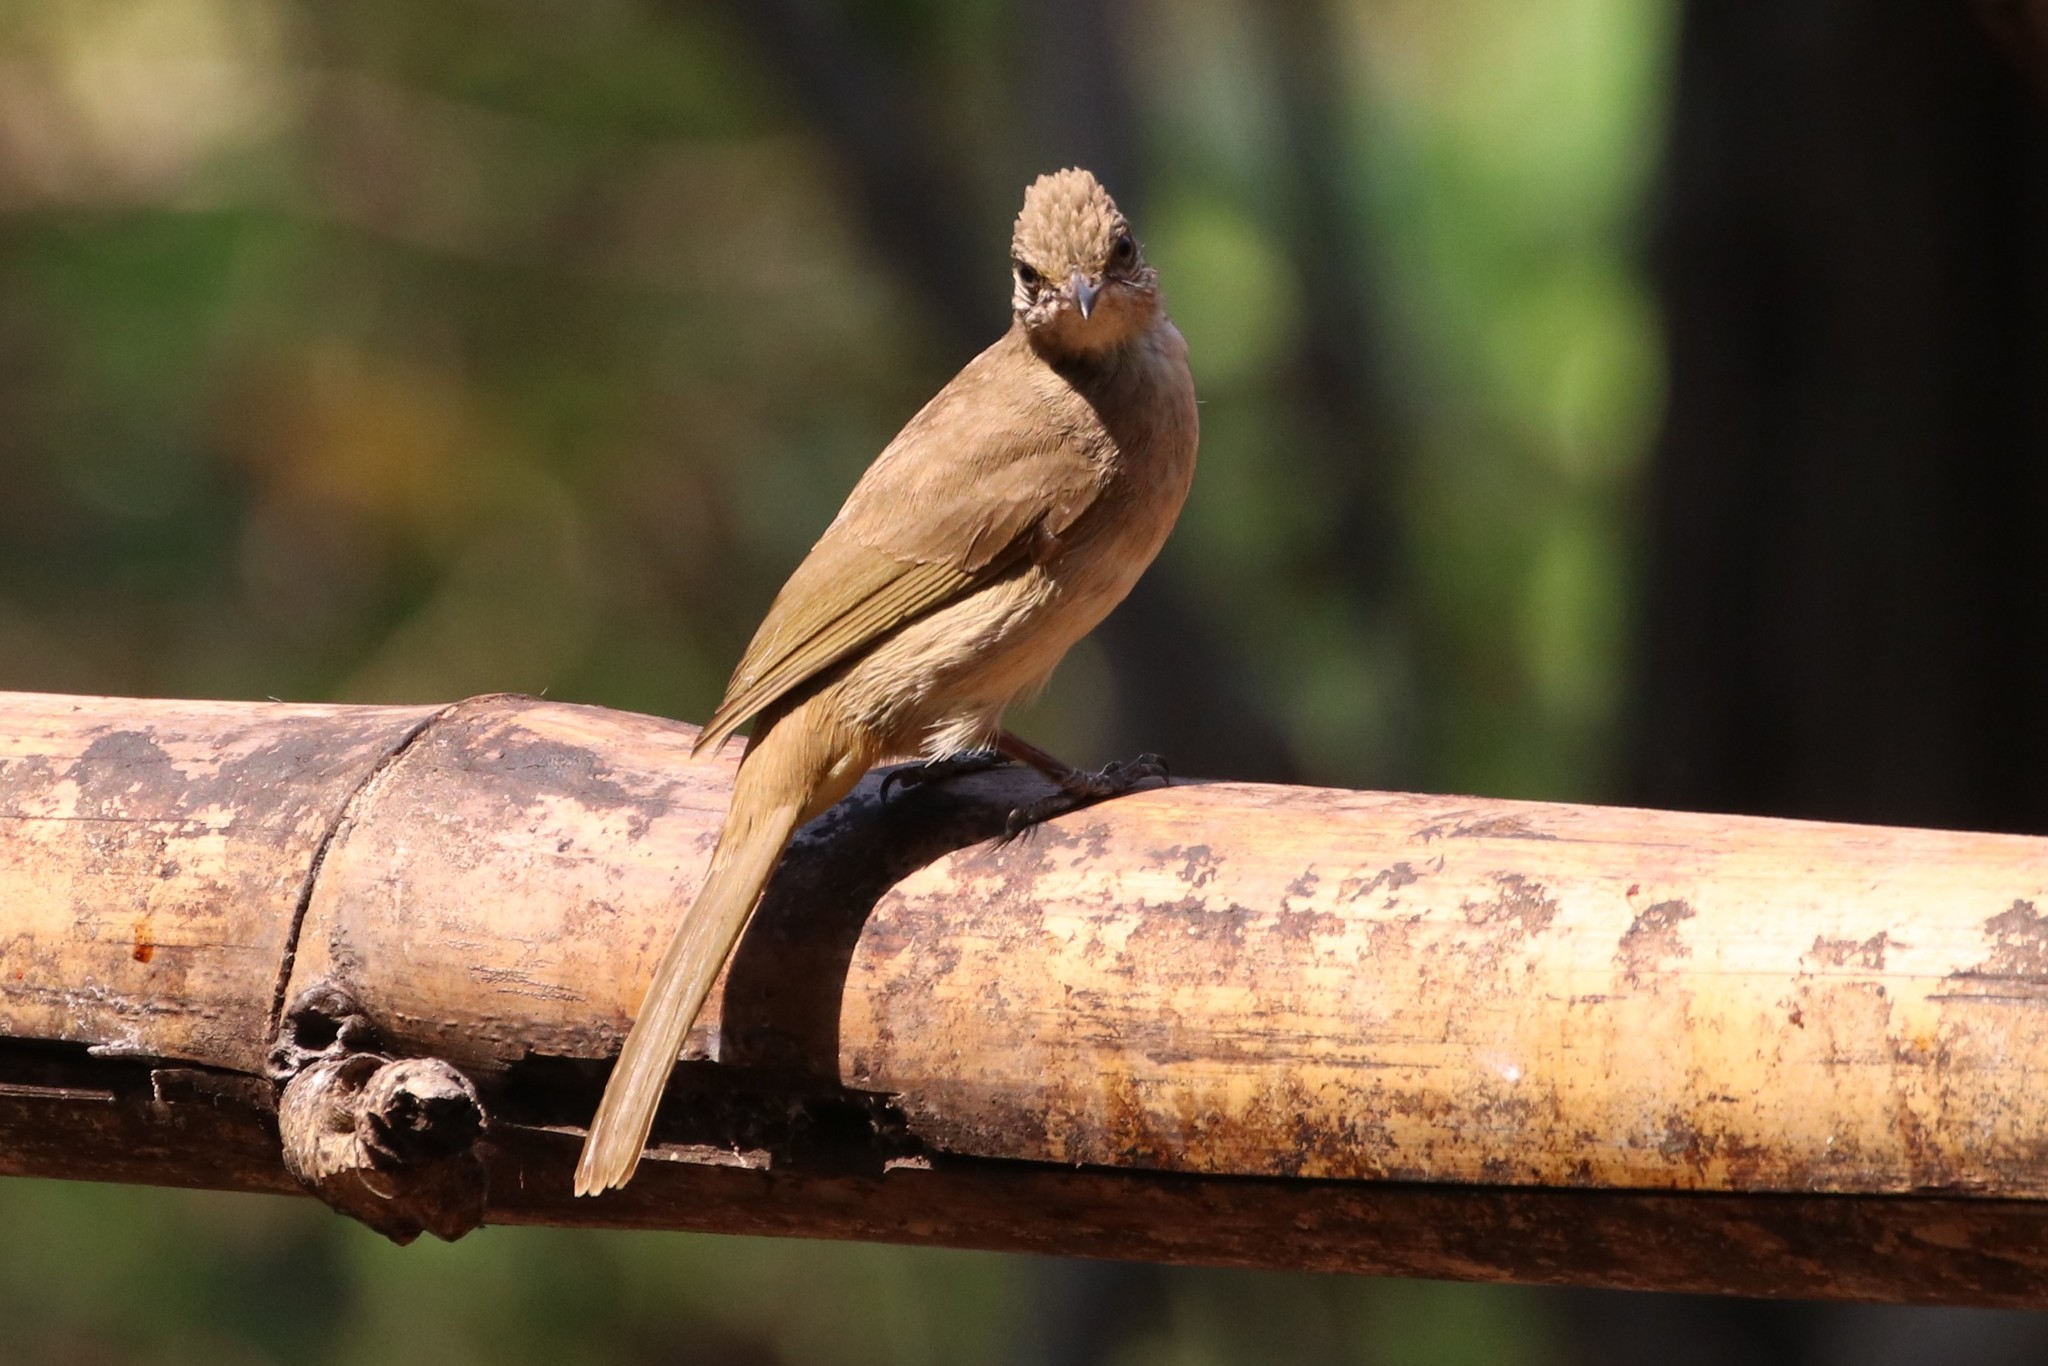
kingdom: Animalia
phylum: Chordata
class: Aves
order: Passeriformes
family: Pycnonotidae
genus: Pycnonotus
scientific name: Pycnonotus blanfordi
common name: Streak-eared bulbul
